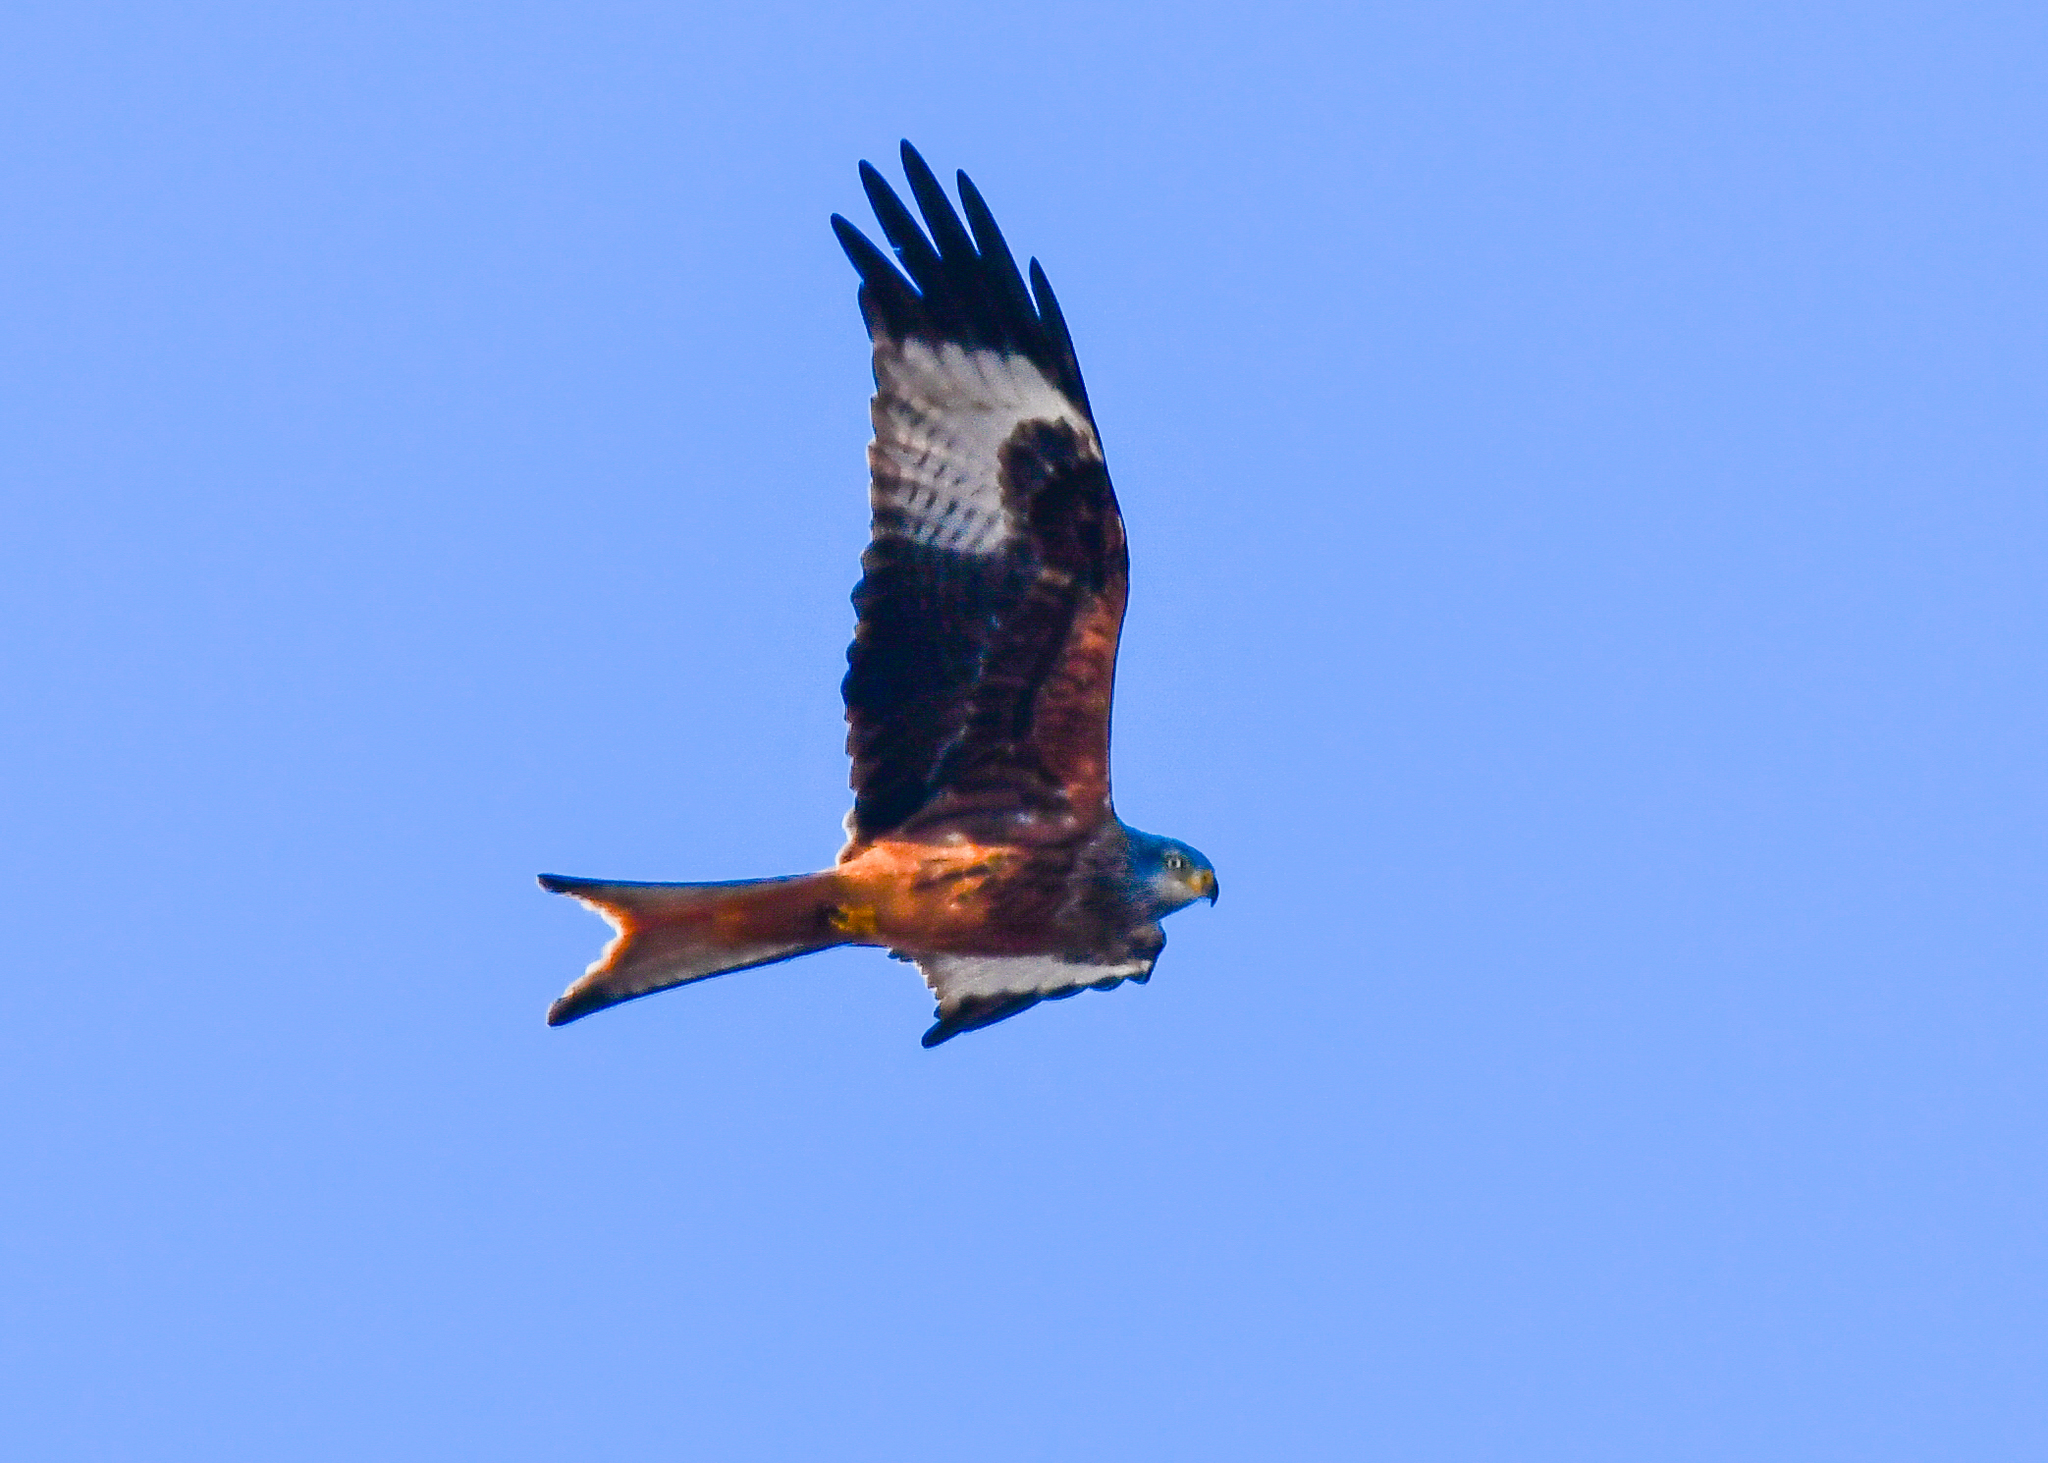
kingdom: Animalia
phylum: Chordata
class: Aves
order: Accipitriformes
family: Accipitridae
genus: Milvus
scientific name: Milvus milvus
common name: Red kite
